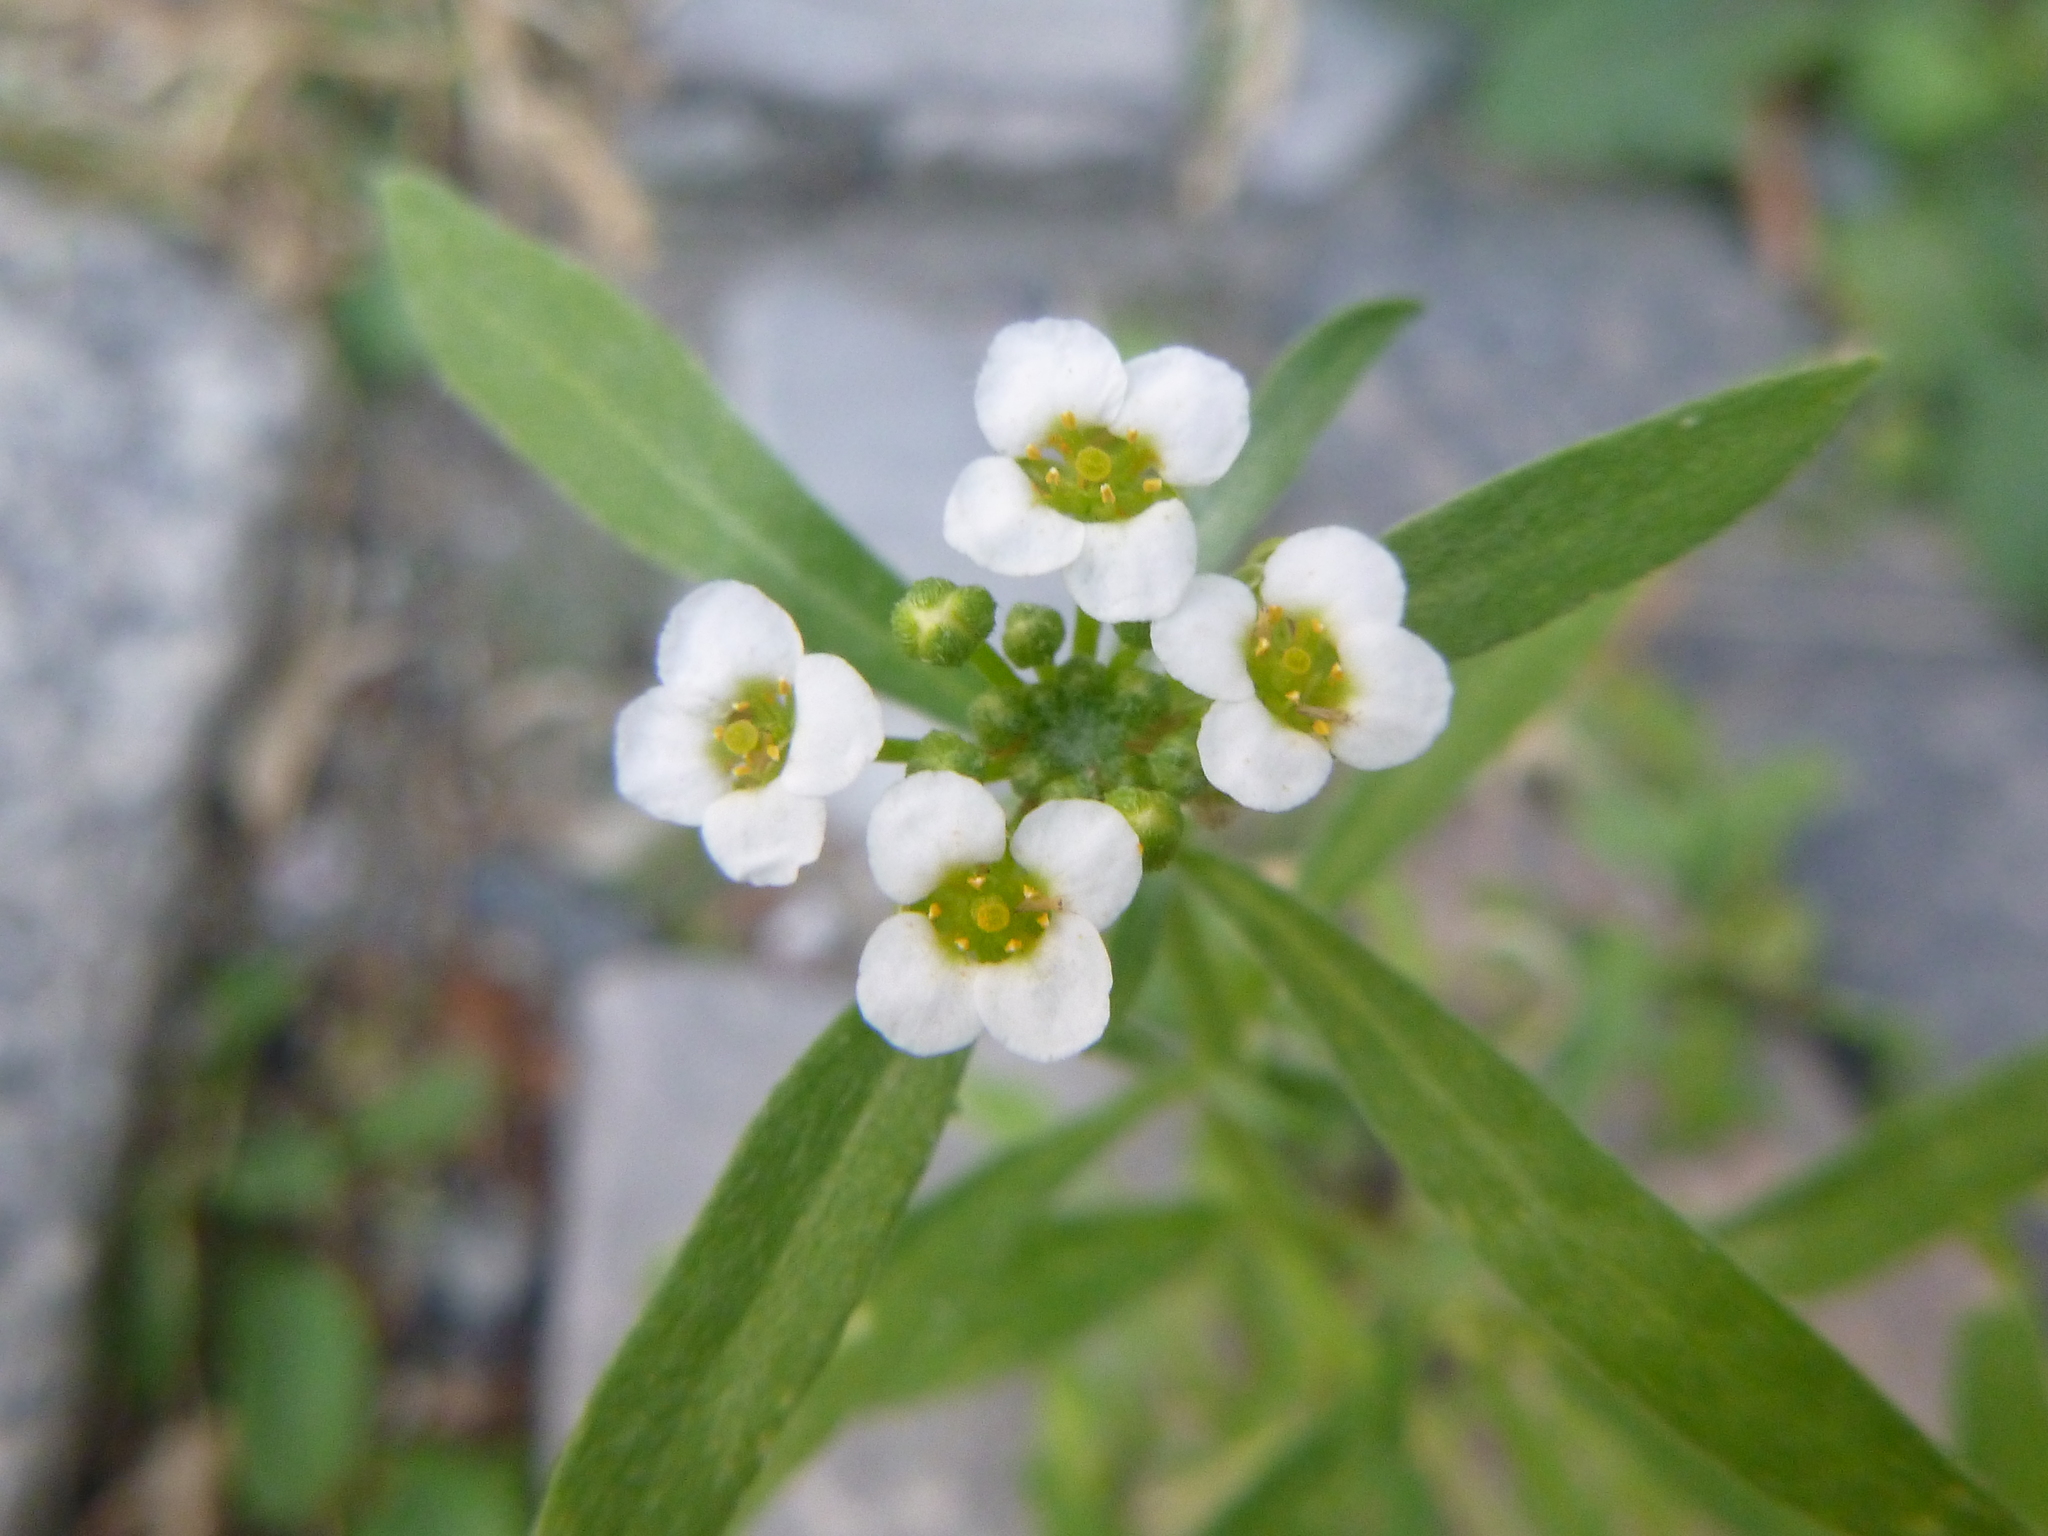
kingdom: Plantae
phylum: Tracheophyta
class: Magnoliopsida
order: Brassicales
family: Brassicaceae
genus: Lobularia
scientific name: Lobularia maritima
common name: Sweet alison
